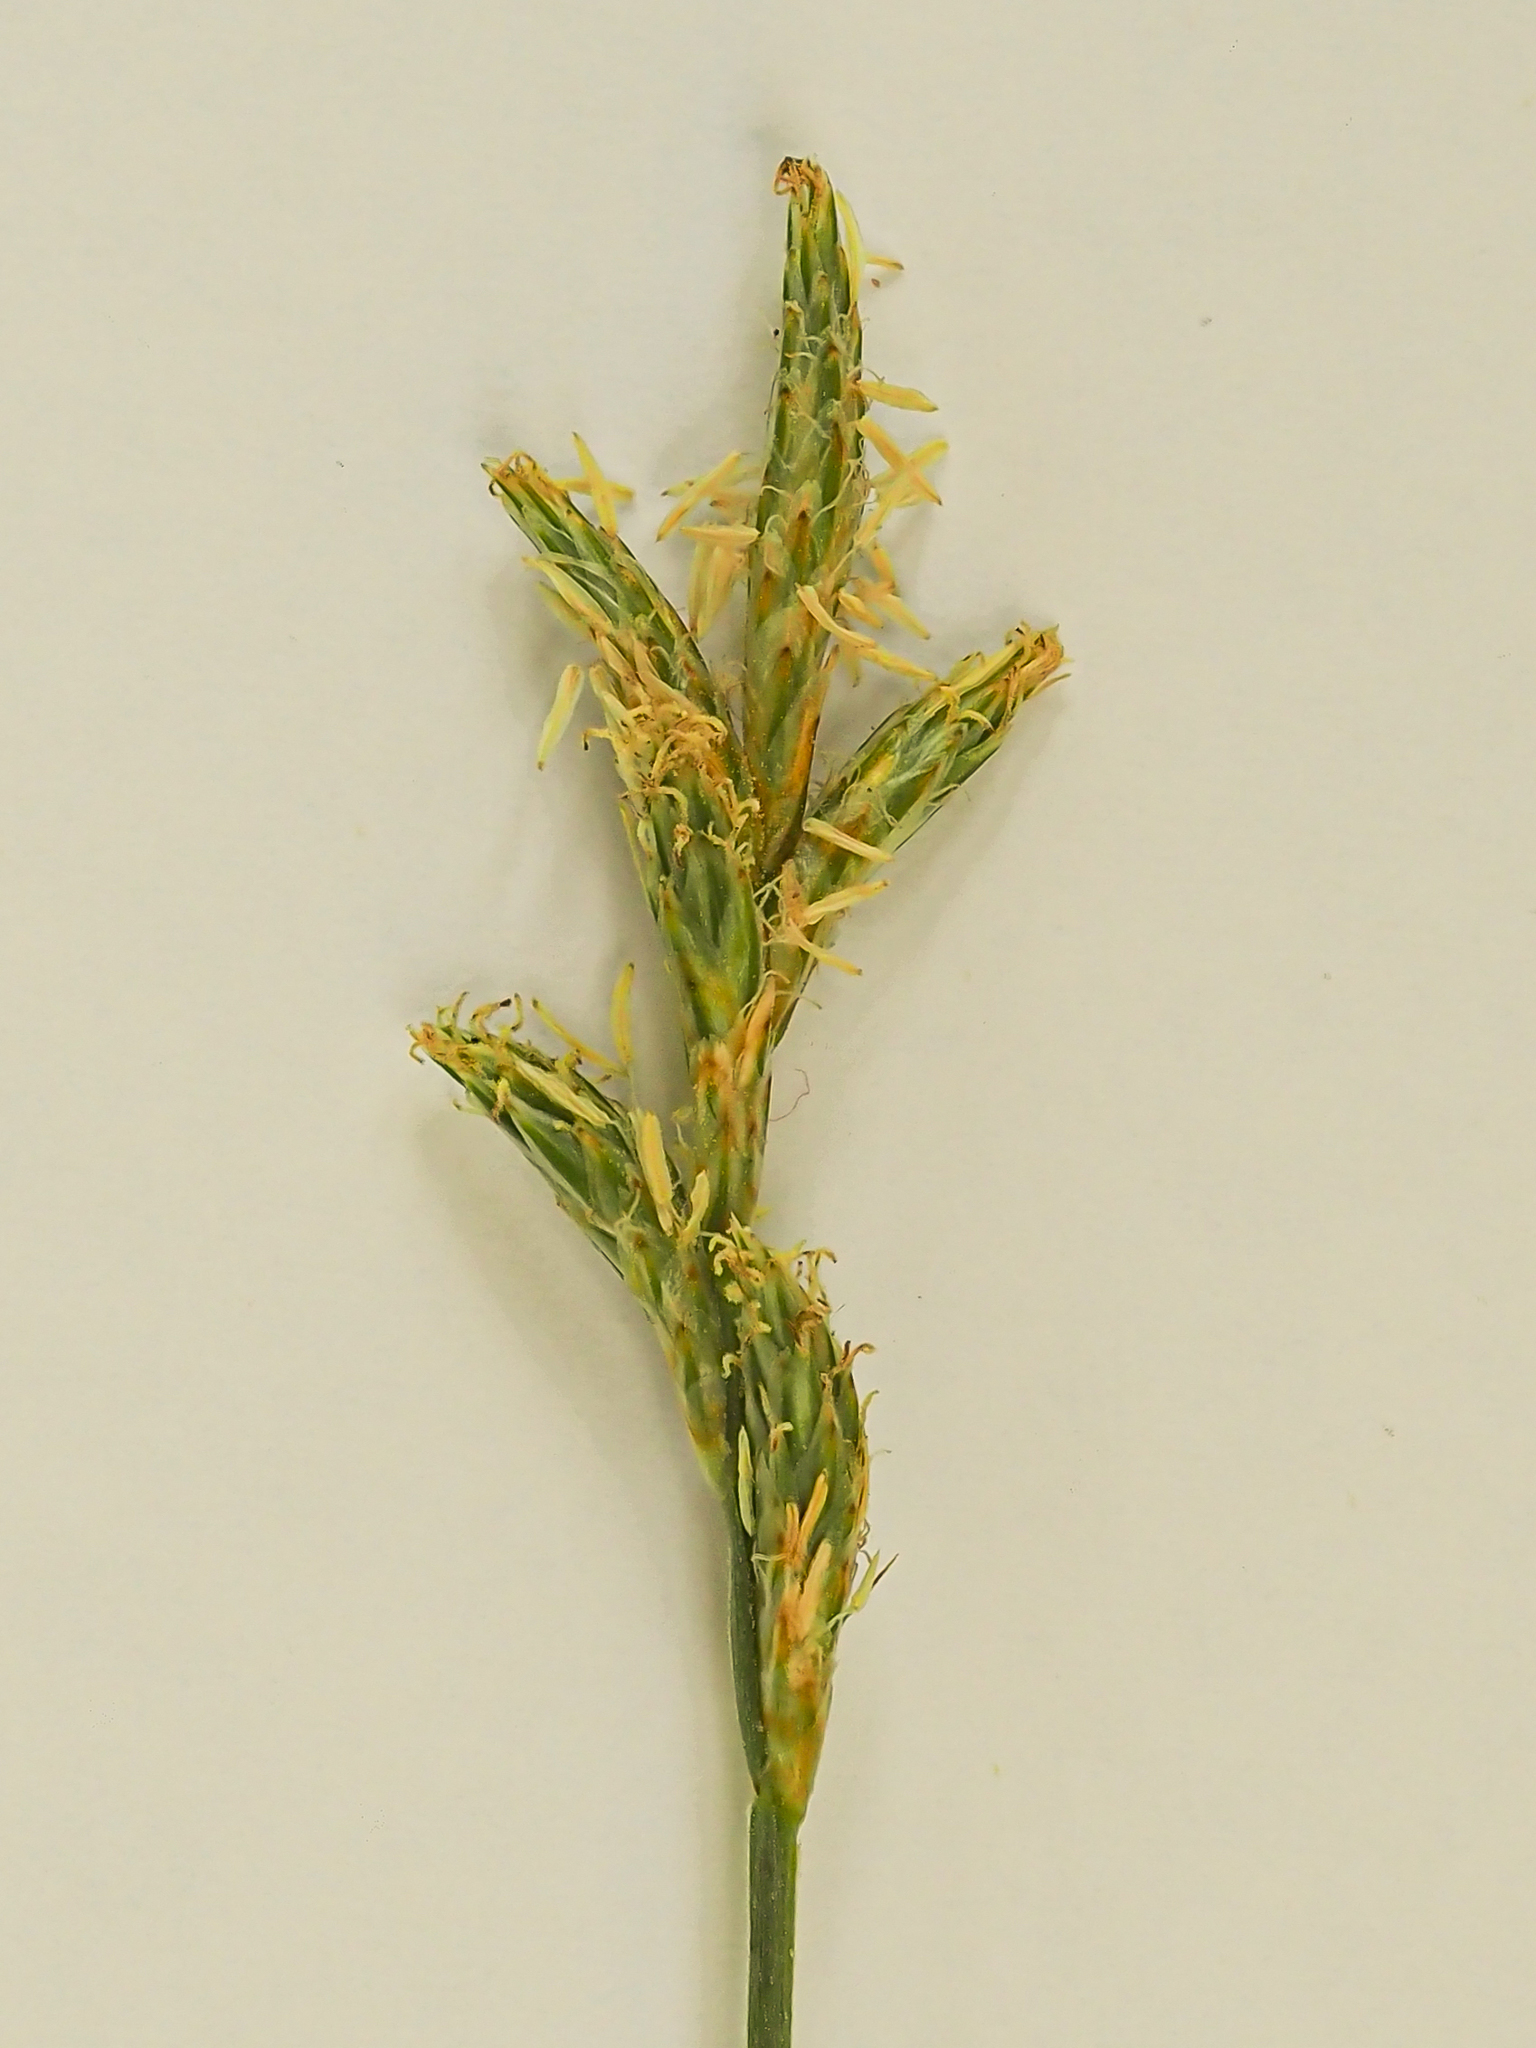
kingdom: Plantae
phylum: Tracheophyta
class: Liliopsida
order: Poales
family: Cyperaceae
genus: Carex
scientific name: Carex brizoides
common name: Quaking-grass sedge
